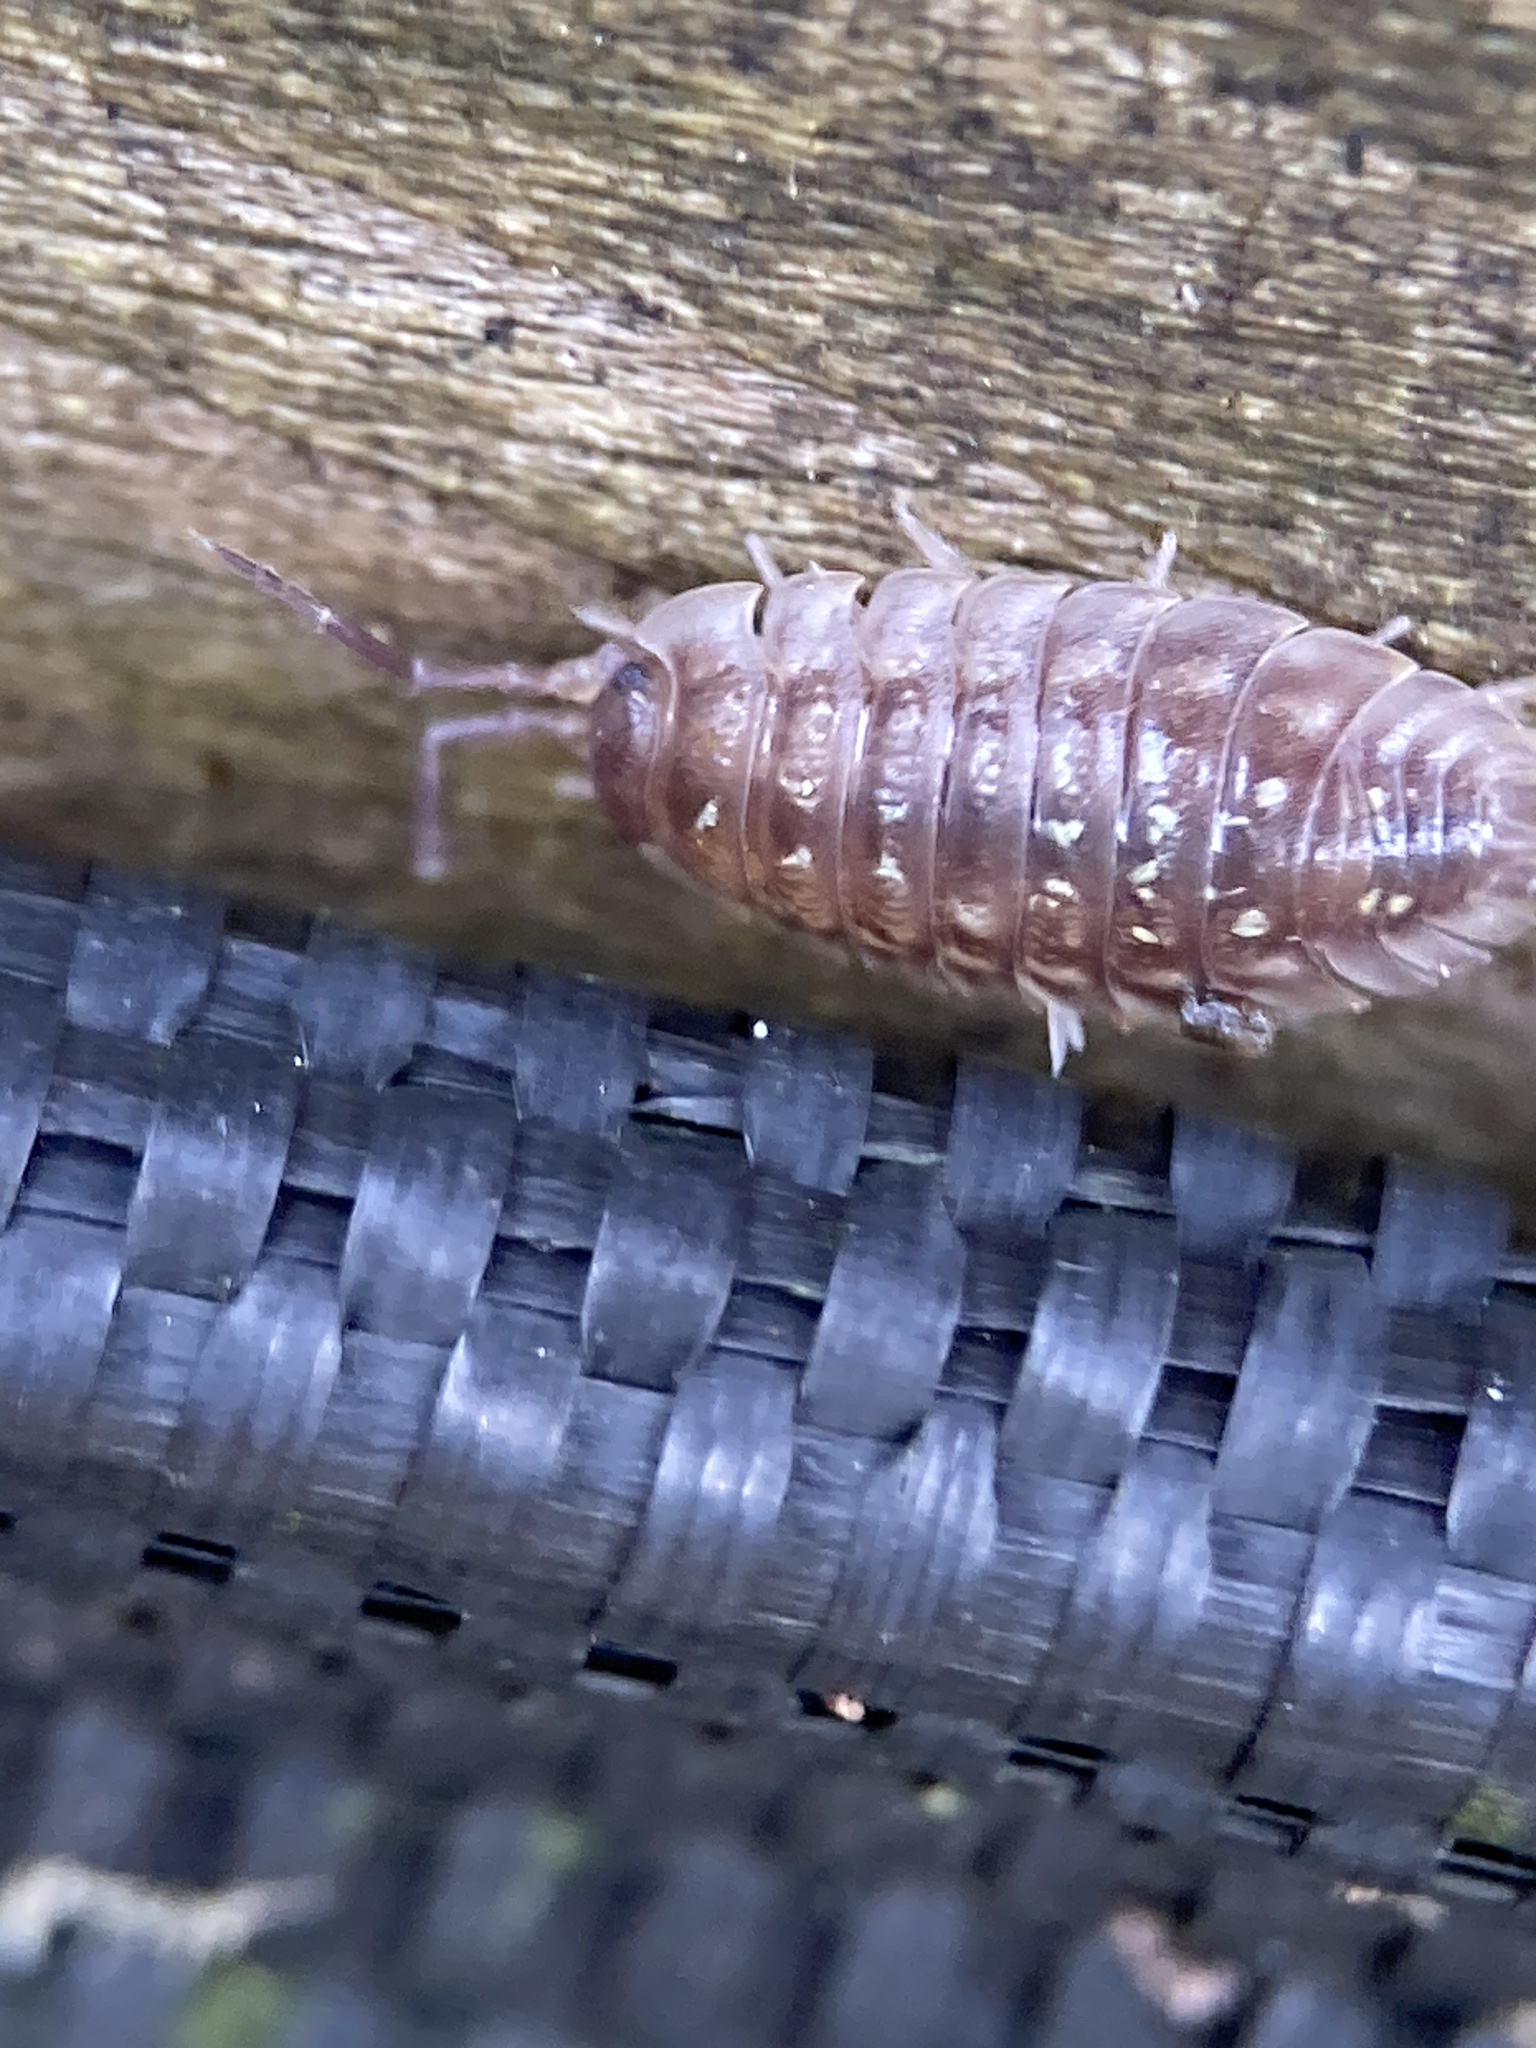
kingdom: Animalia
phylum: Arthropoda
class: Malacostraca
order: Isopoda
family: Oniscidae
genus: Oniscus
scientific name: Oniscus asellus
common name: Common shiny woodlouse
